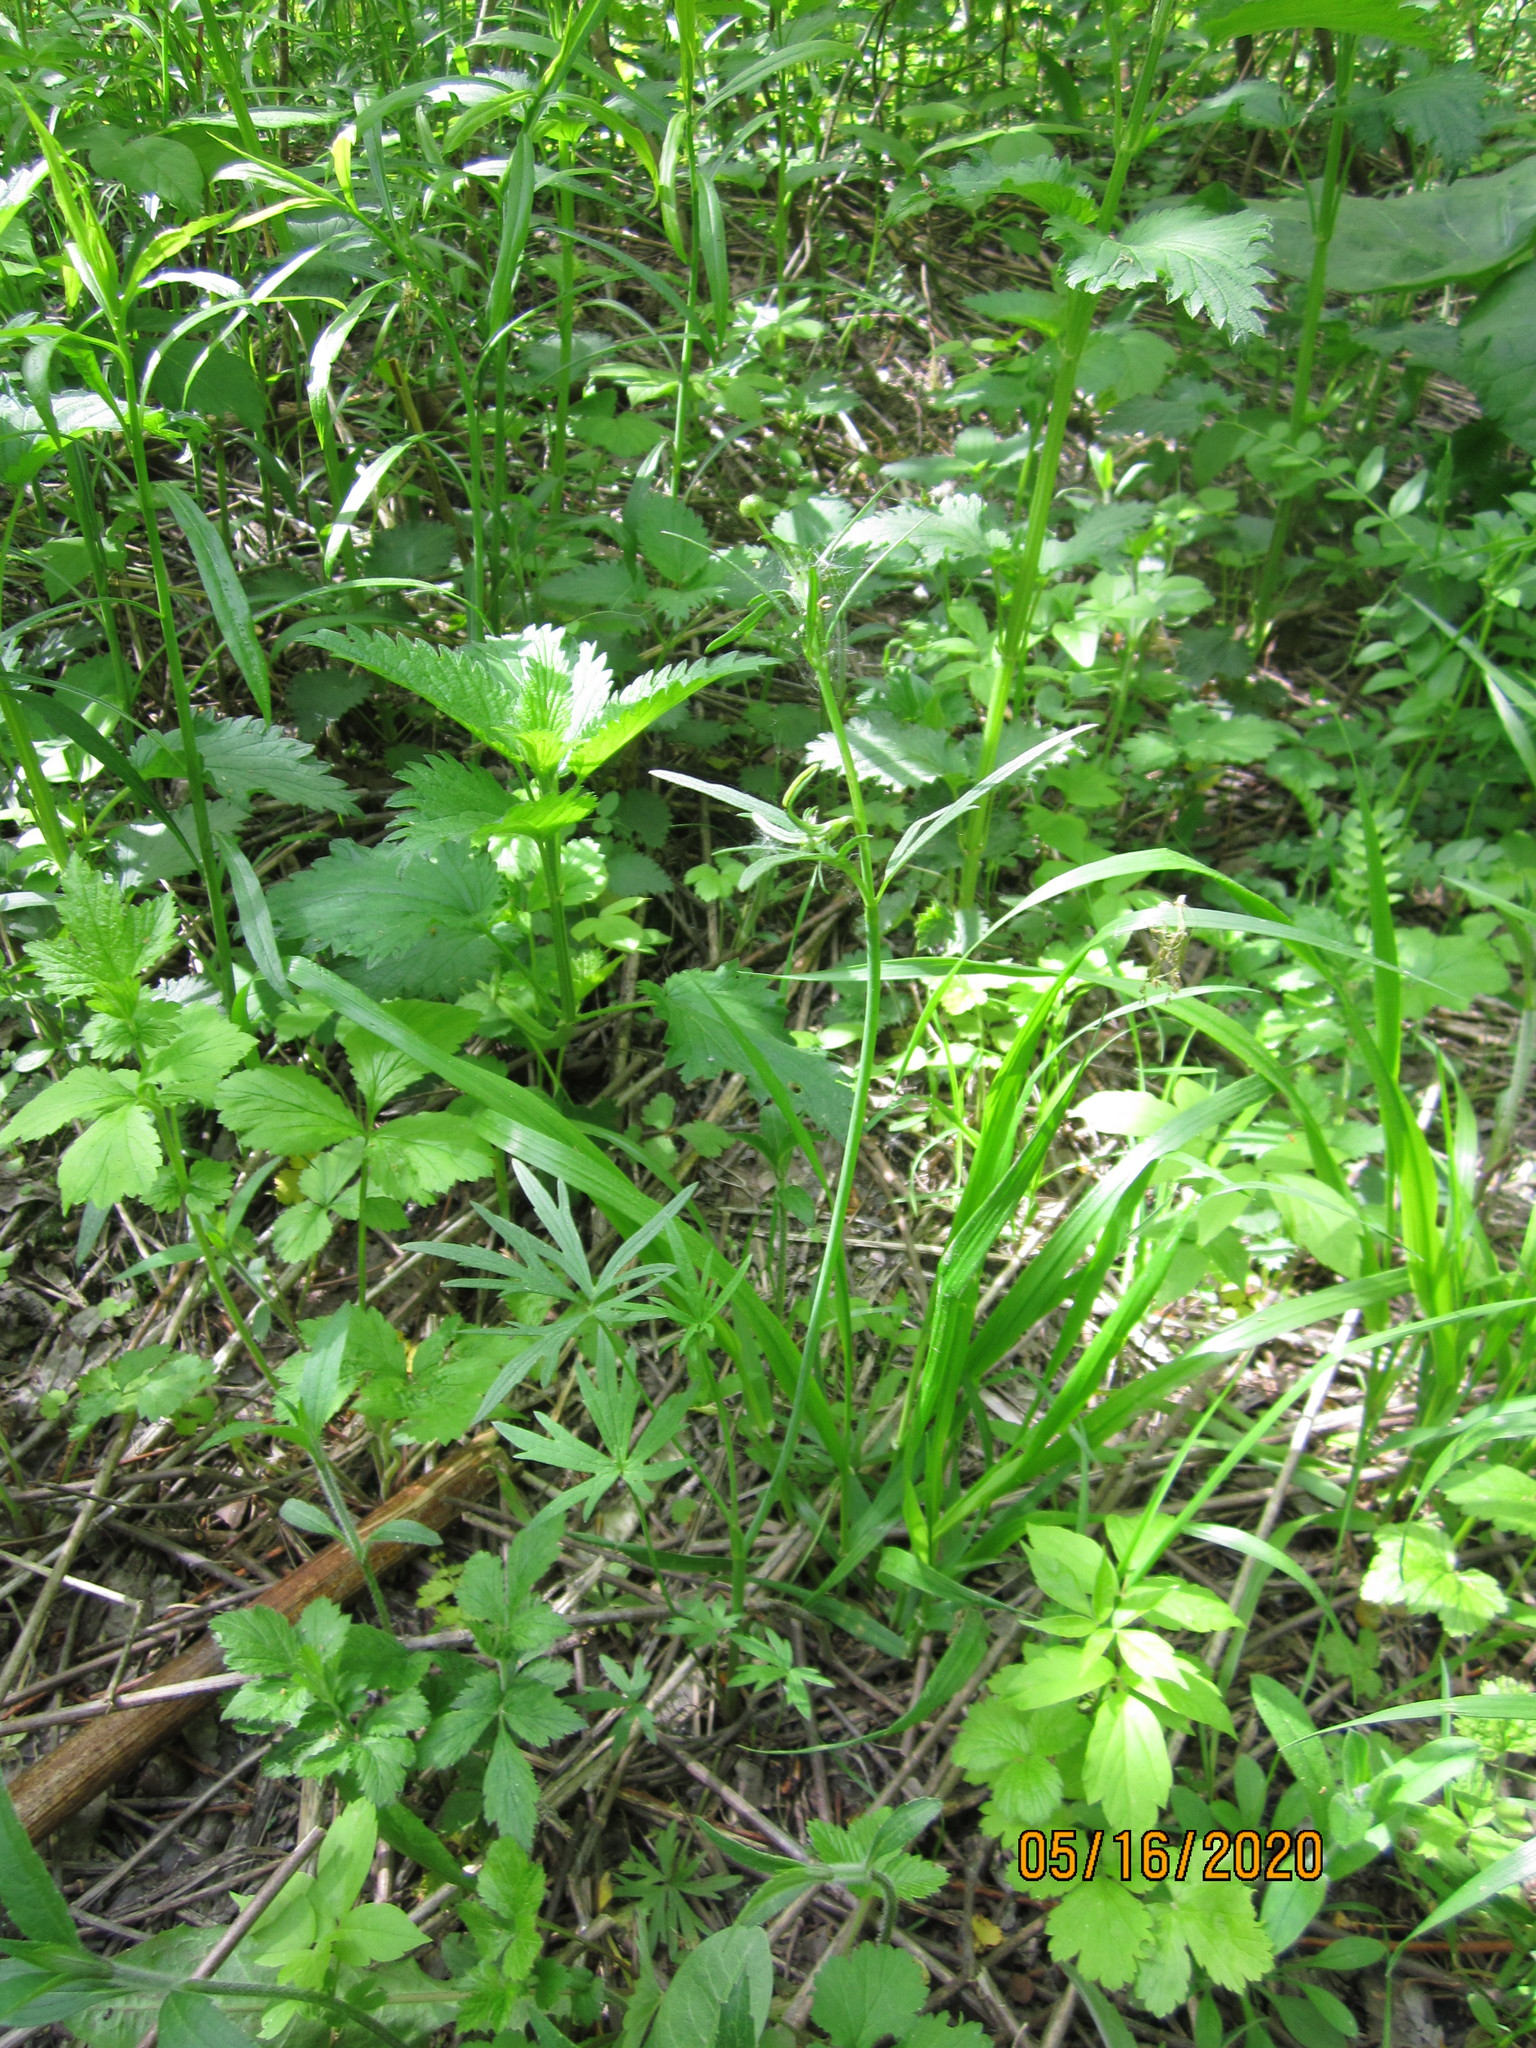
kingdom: Plantae
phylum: Tracheophyta
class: Magnoliopsida
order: Ranunculales
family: Ranunculaceae
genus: Ranunculus
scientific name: Ranunculus acris
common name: Meadow buttercup
